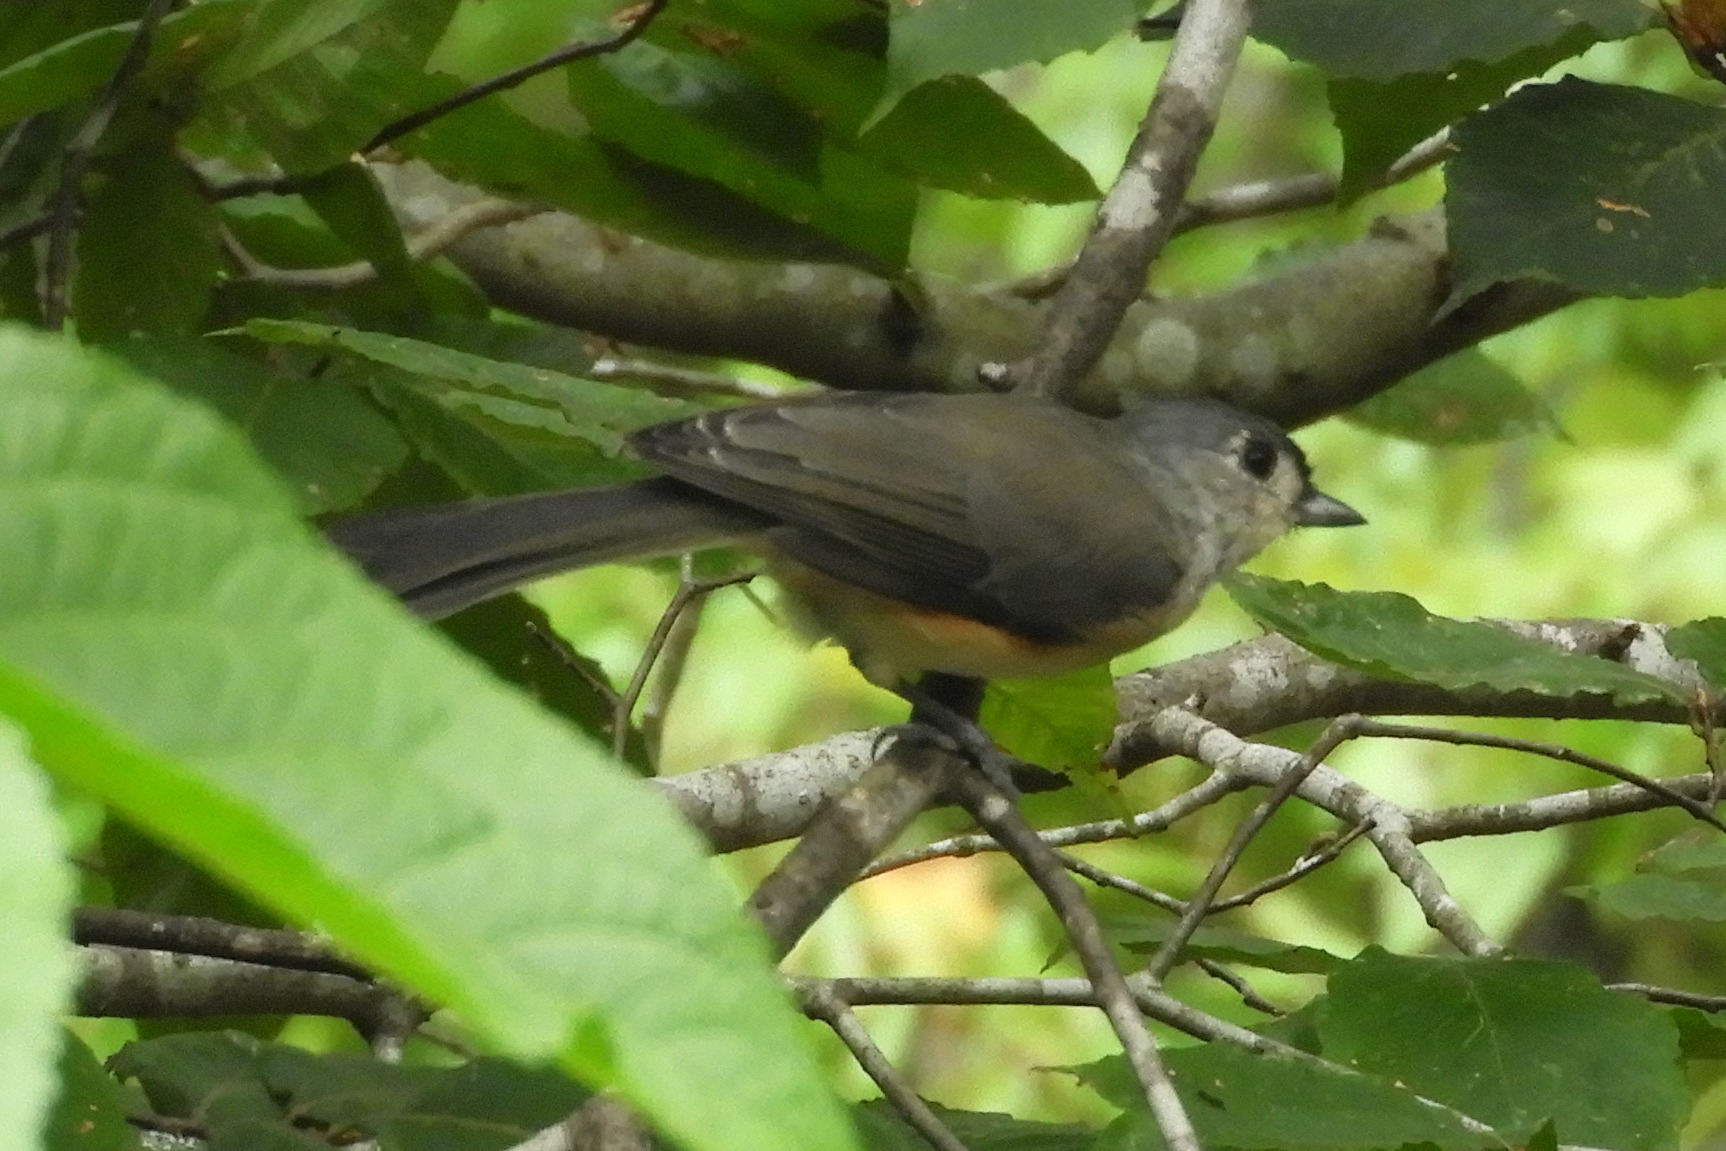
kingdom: Animalia
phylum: Chordata
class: Aves
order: Passeriformes
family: Paridae
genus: Baeolophus
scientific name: Baeolophus bicolor
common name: Tufted titmouse
